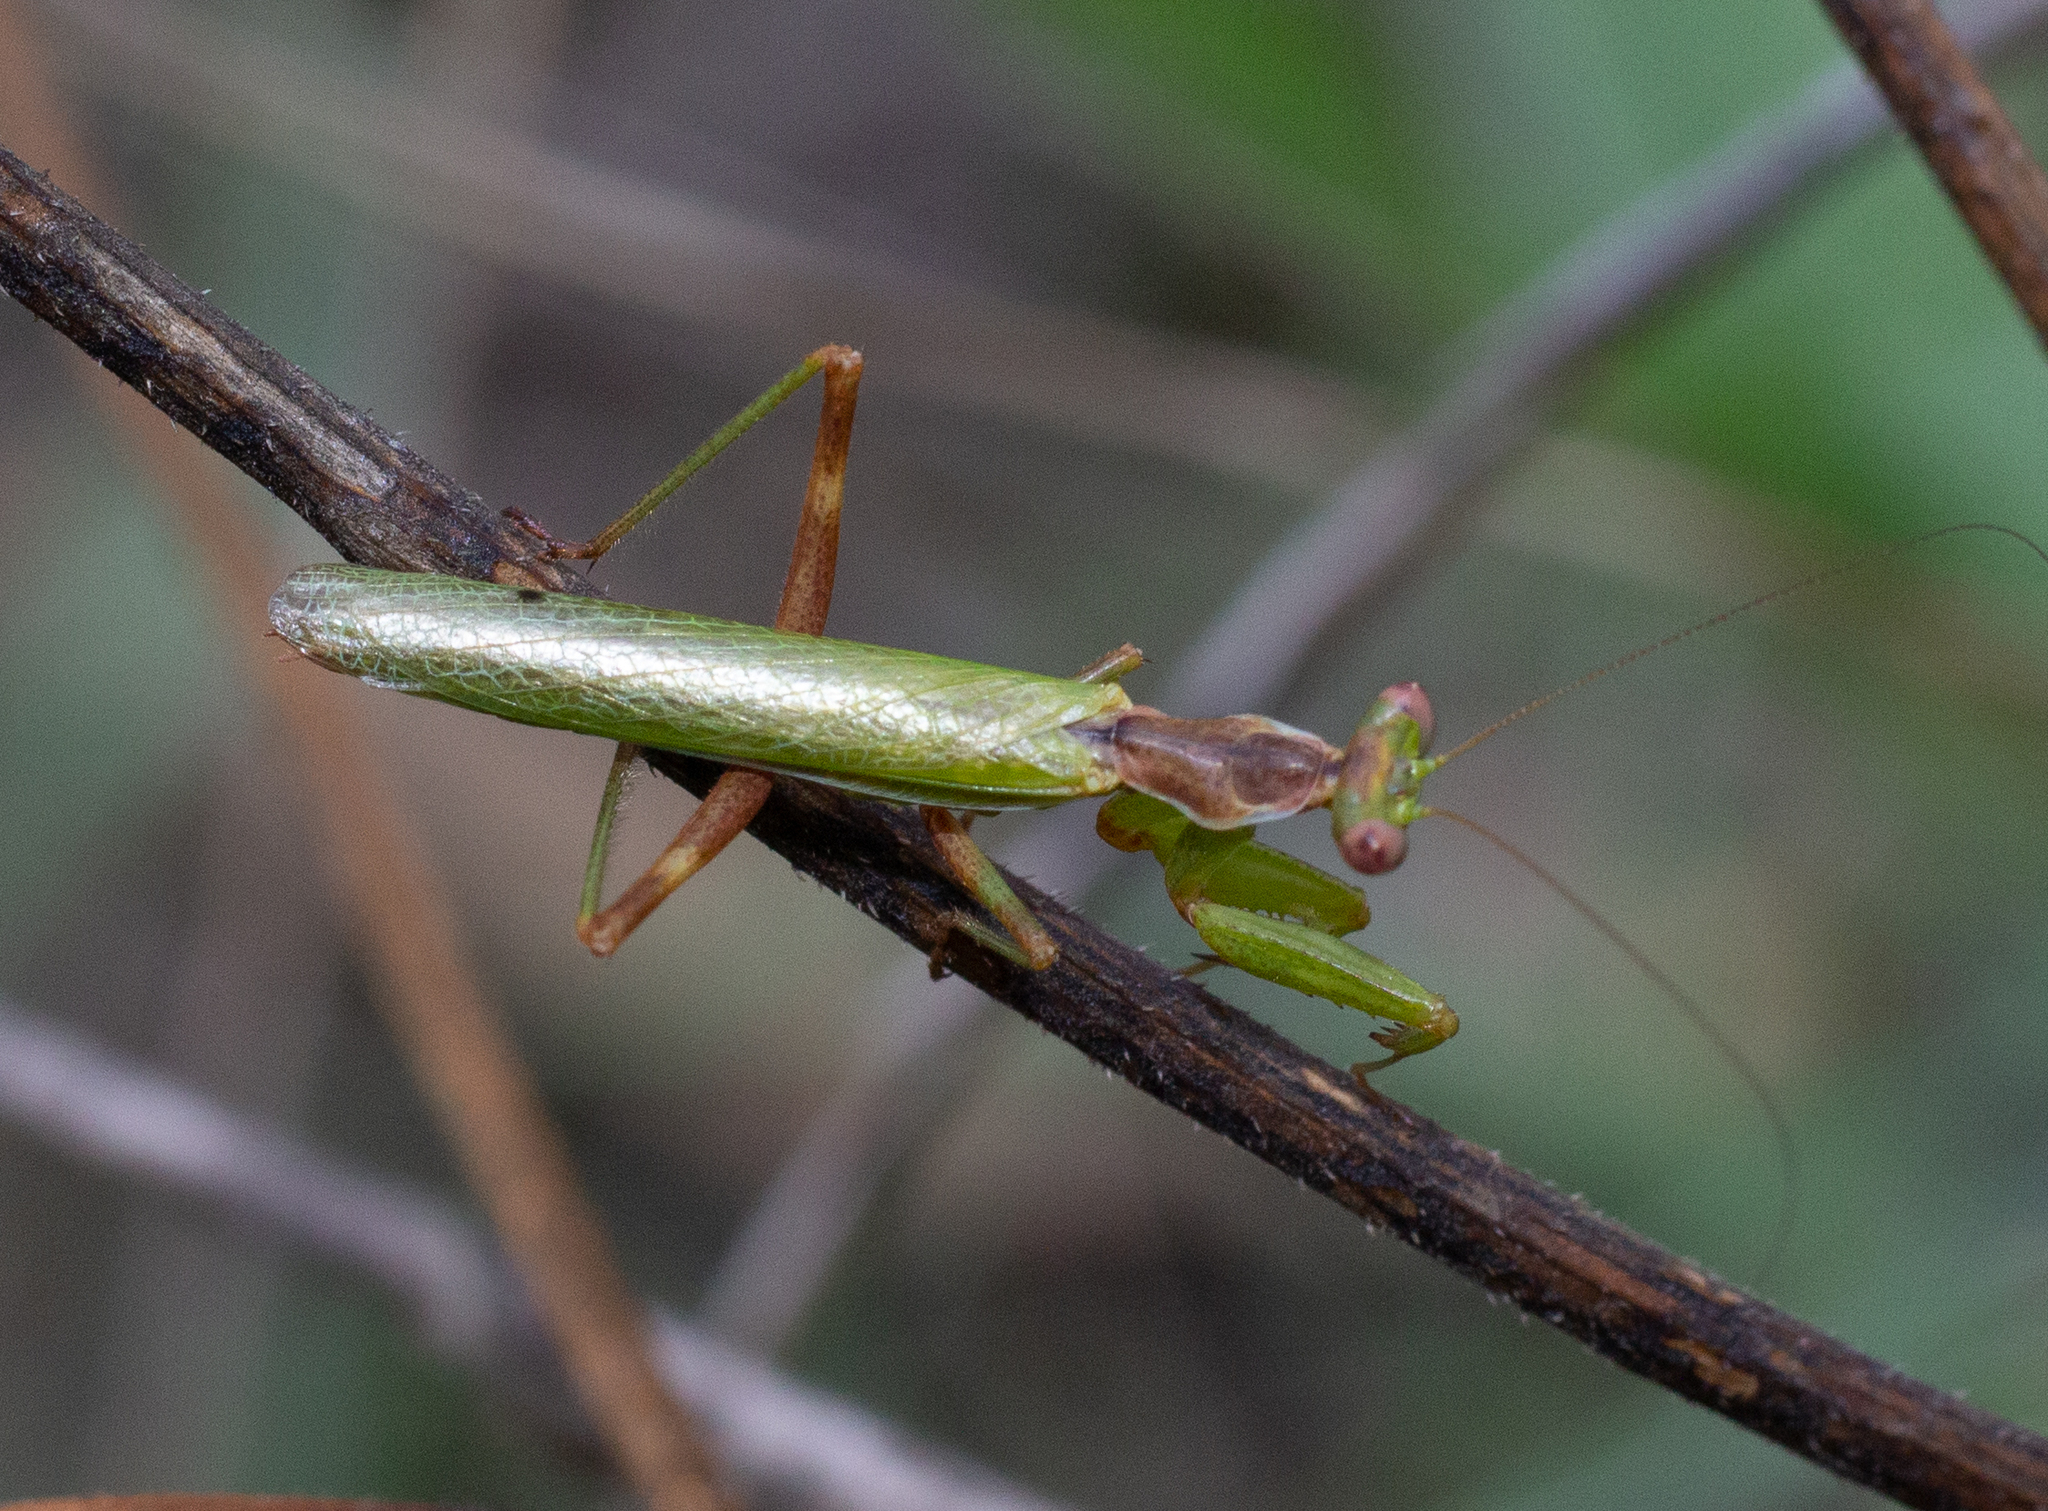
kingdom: Animalia
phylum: Arthropoda
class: Insecta
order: Mantodea
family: Amelidae
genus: Ameles
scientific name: Ameles spallanzania
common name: European dwarf mantis
